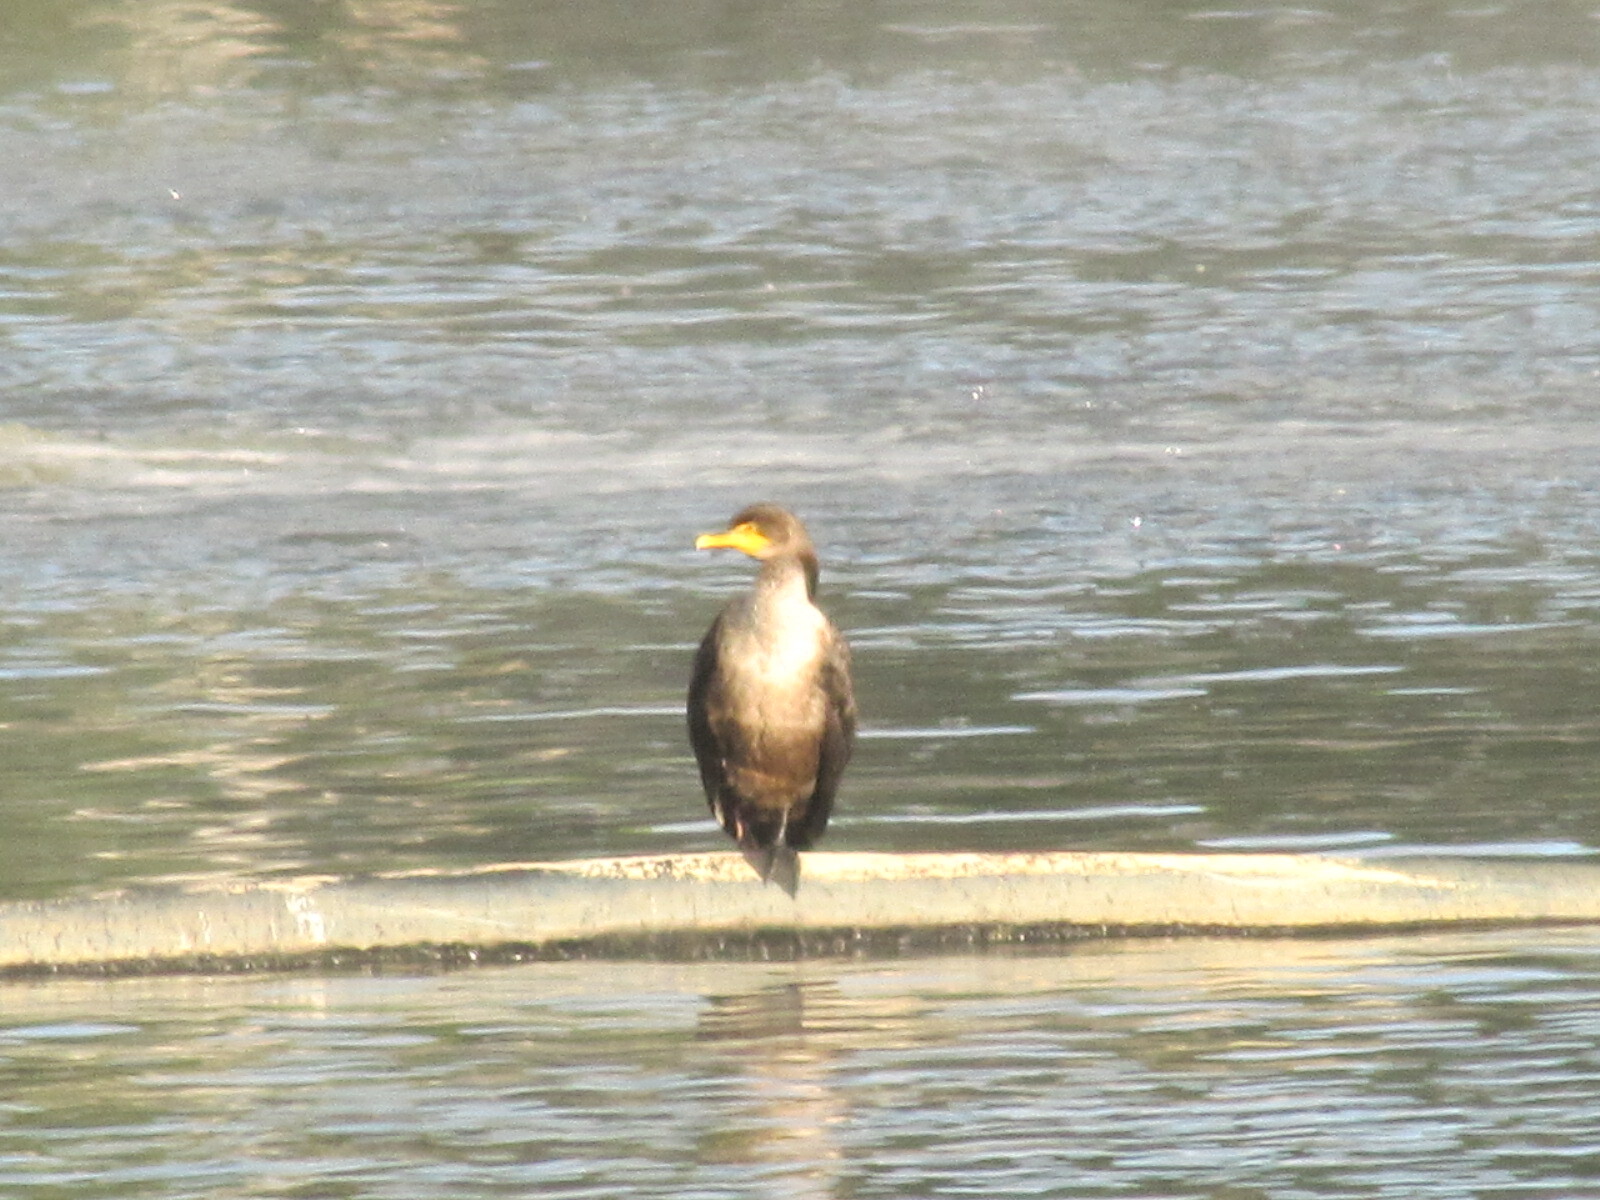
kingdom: Animalia
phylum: Chordata
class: Aves
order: Suliformes
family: Phalacrocoracidae
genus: Phalacrocorax
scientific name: Phalacrocorax auritus
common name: Double-crested cormorant
